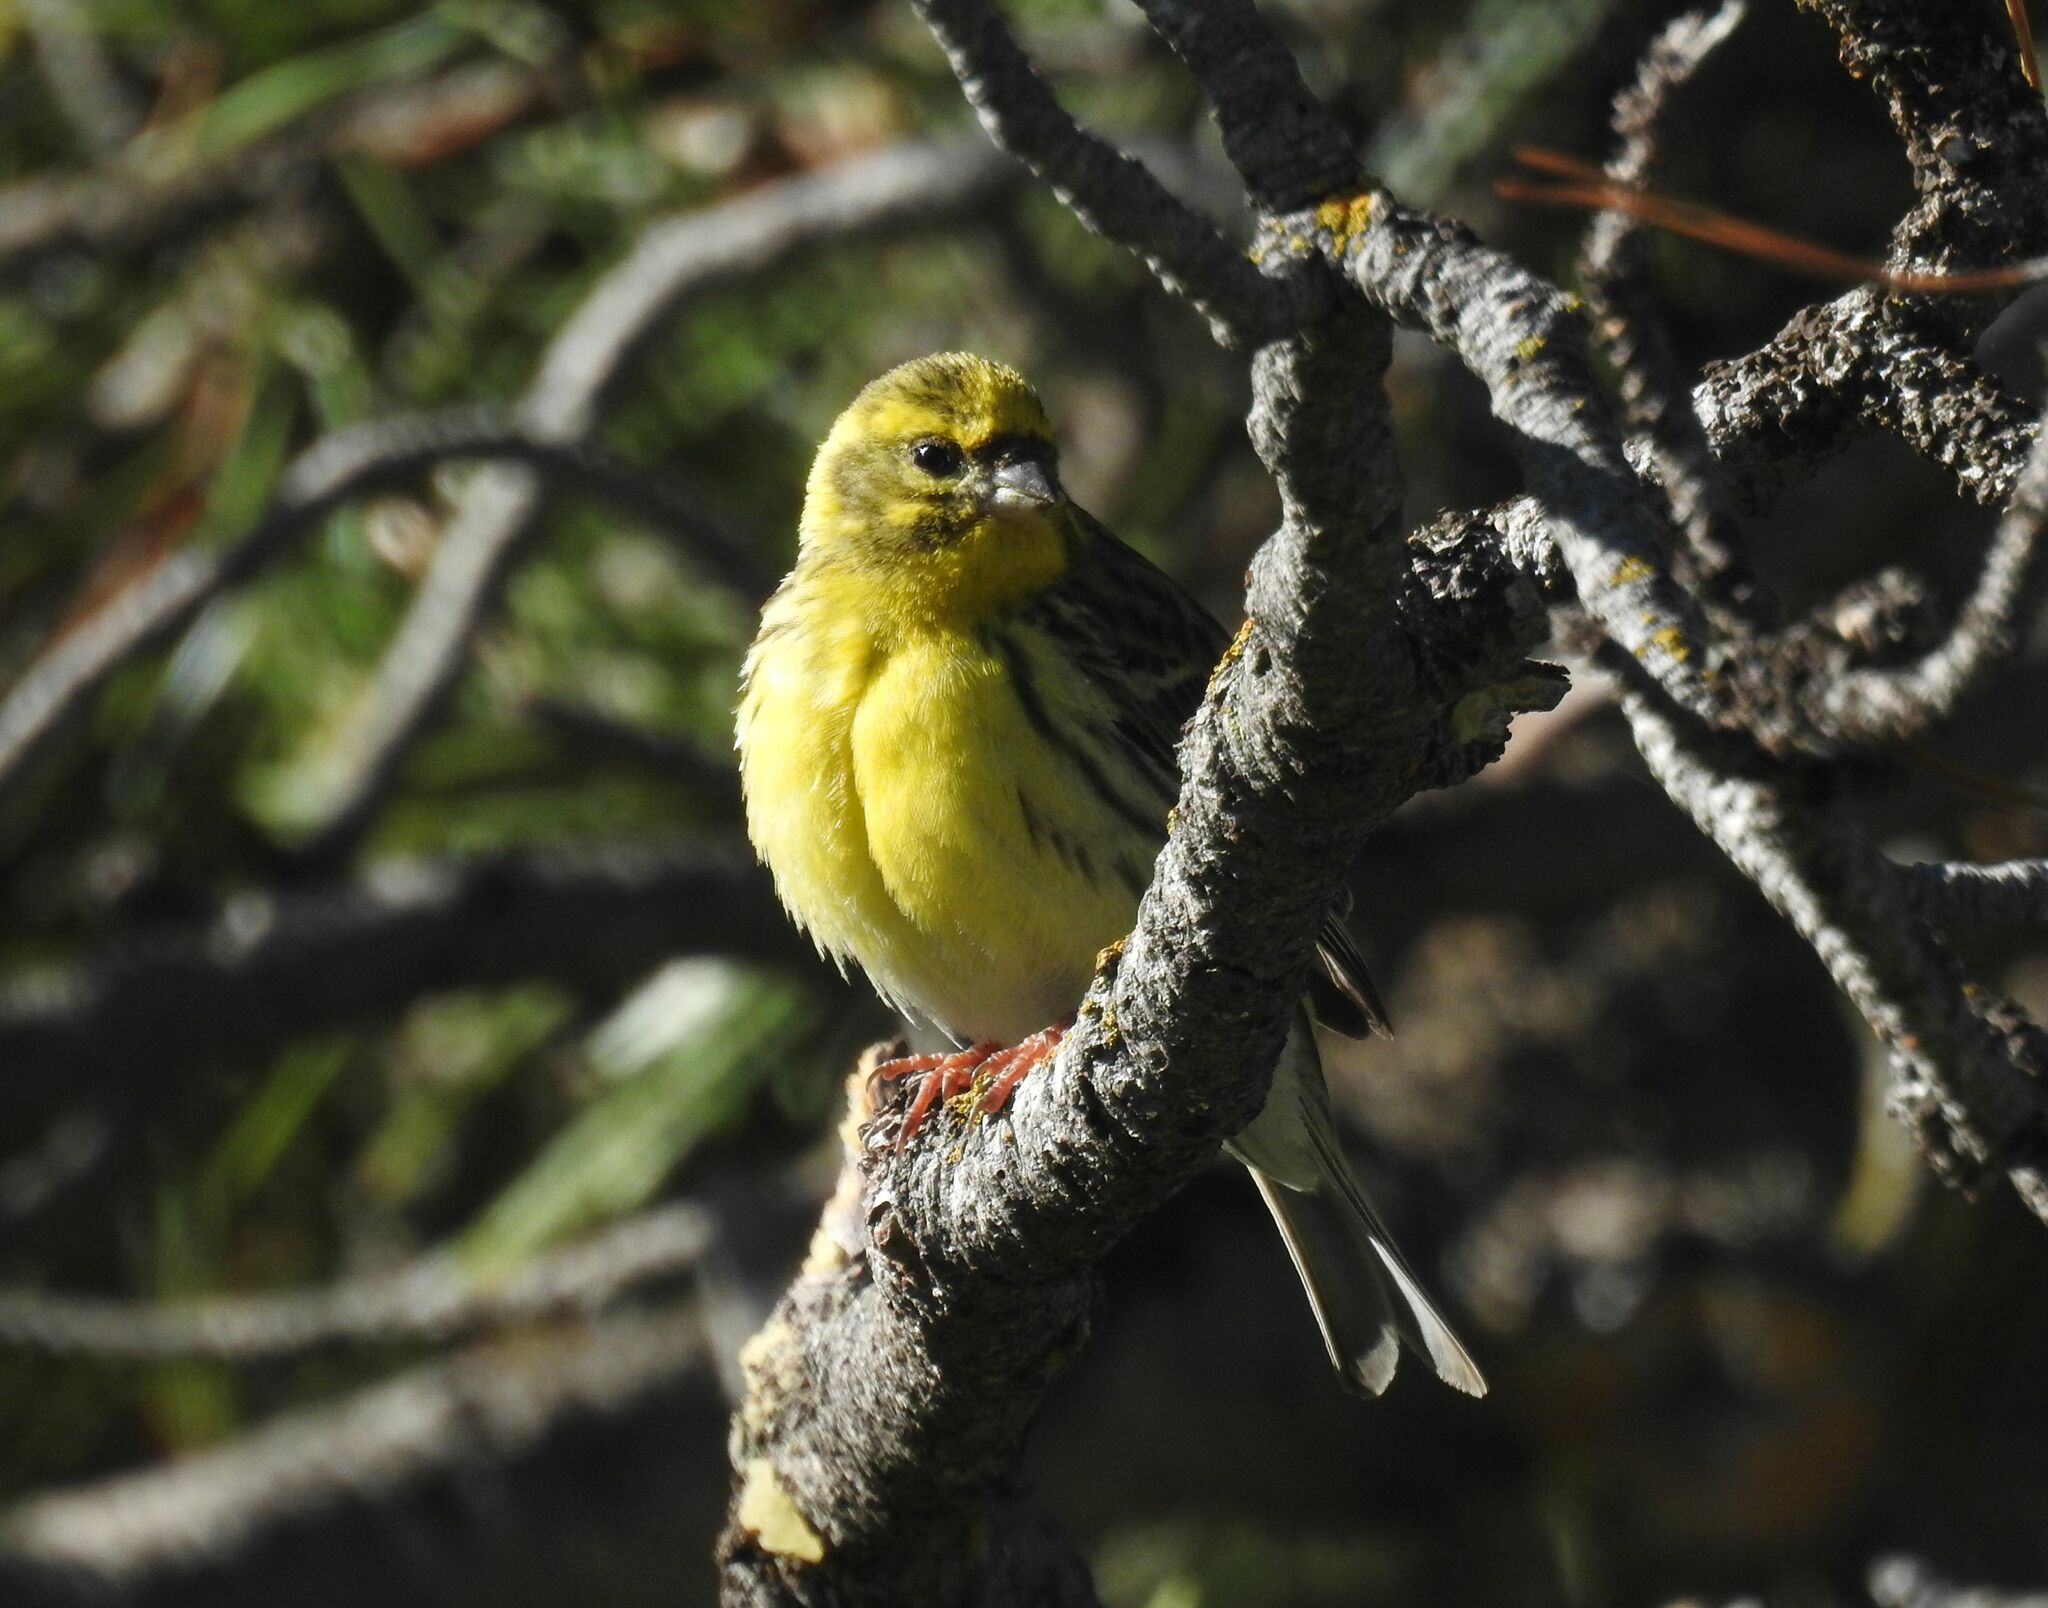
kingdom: Animalia
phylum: Chordata
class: Aves
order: Passeriformes
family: Fringillidae
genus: Serinus
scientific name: Serinus serinus
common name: European serin
